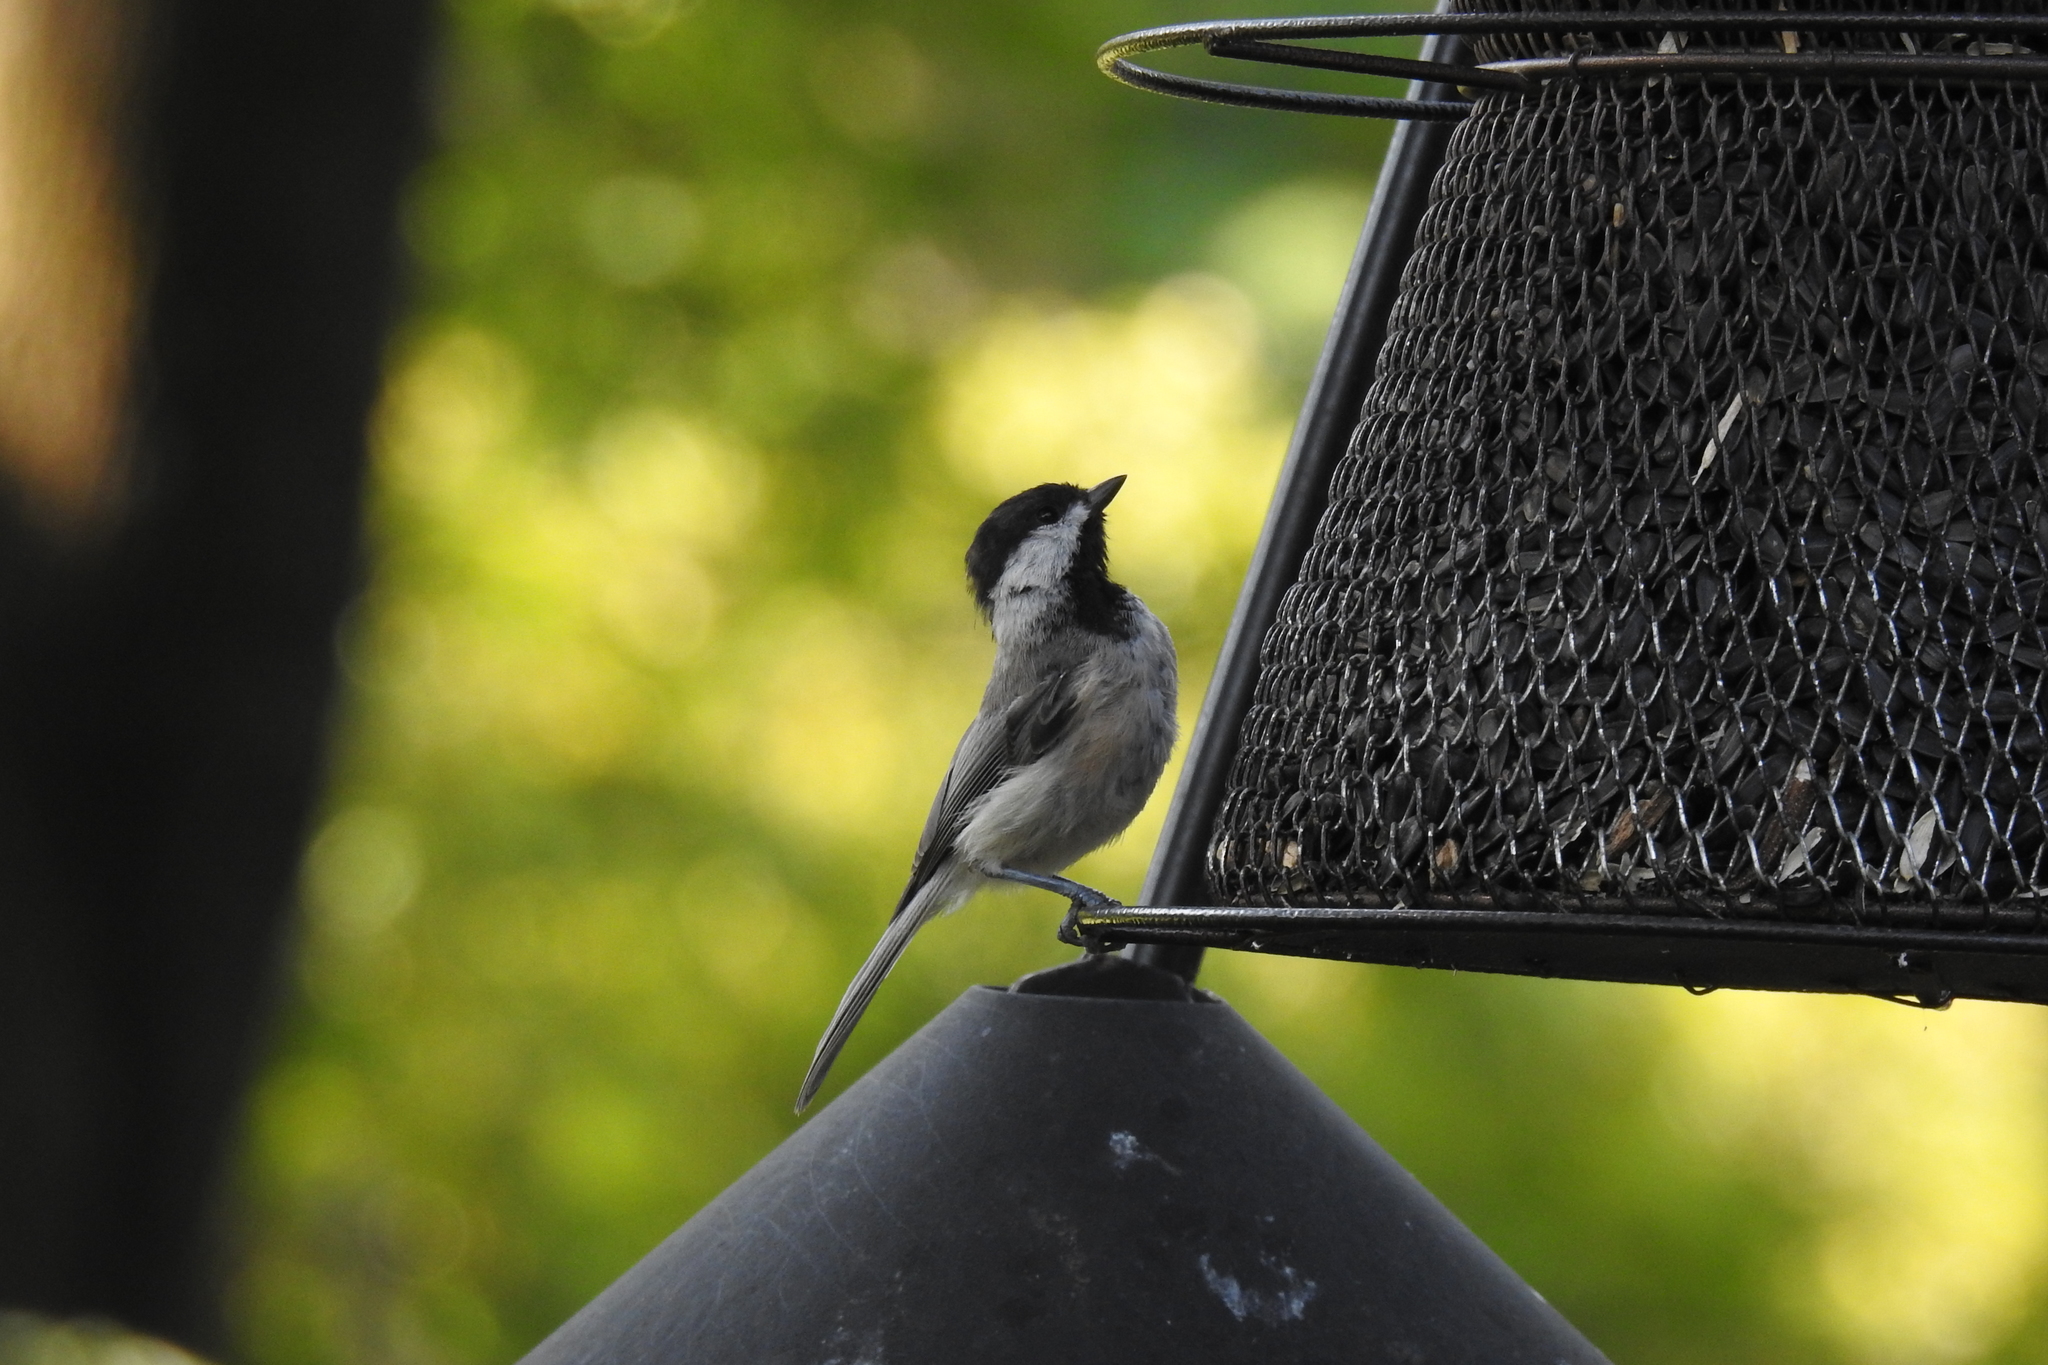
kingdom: Animalia
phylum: Chordata
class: Aves
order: Passeriformes
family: Paridae
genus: Poecile
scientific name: Poecile carolinensis
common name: Carolina chickadee
